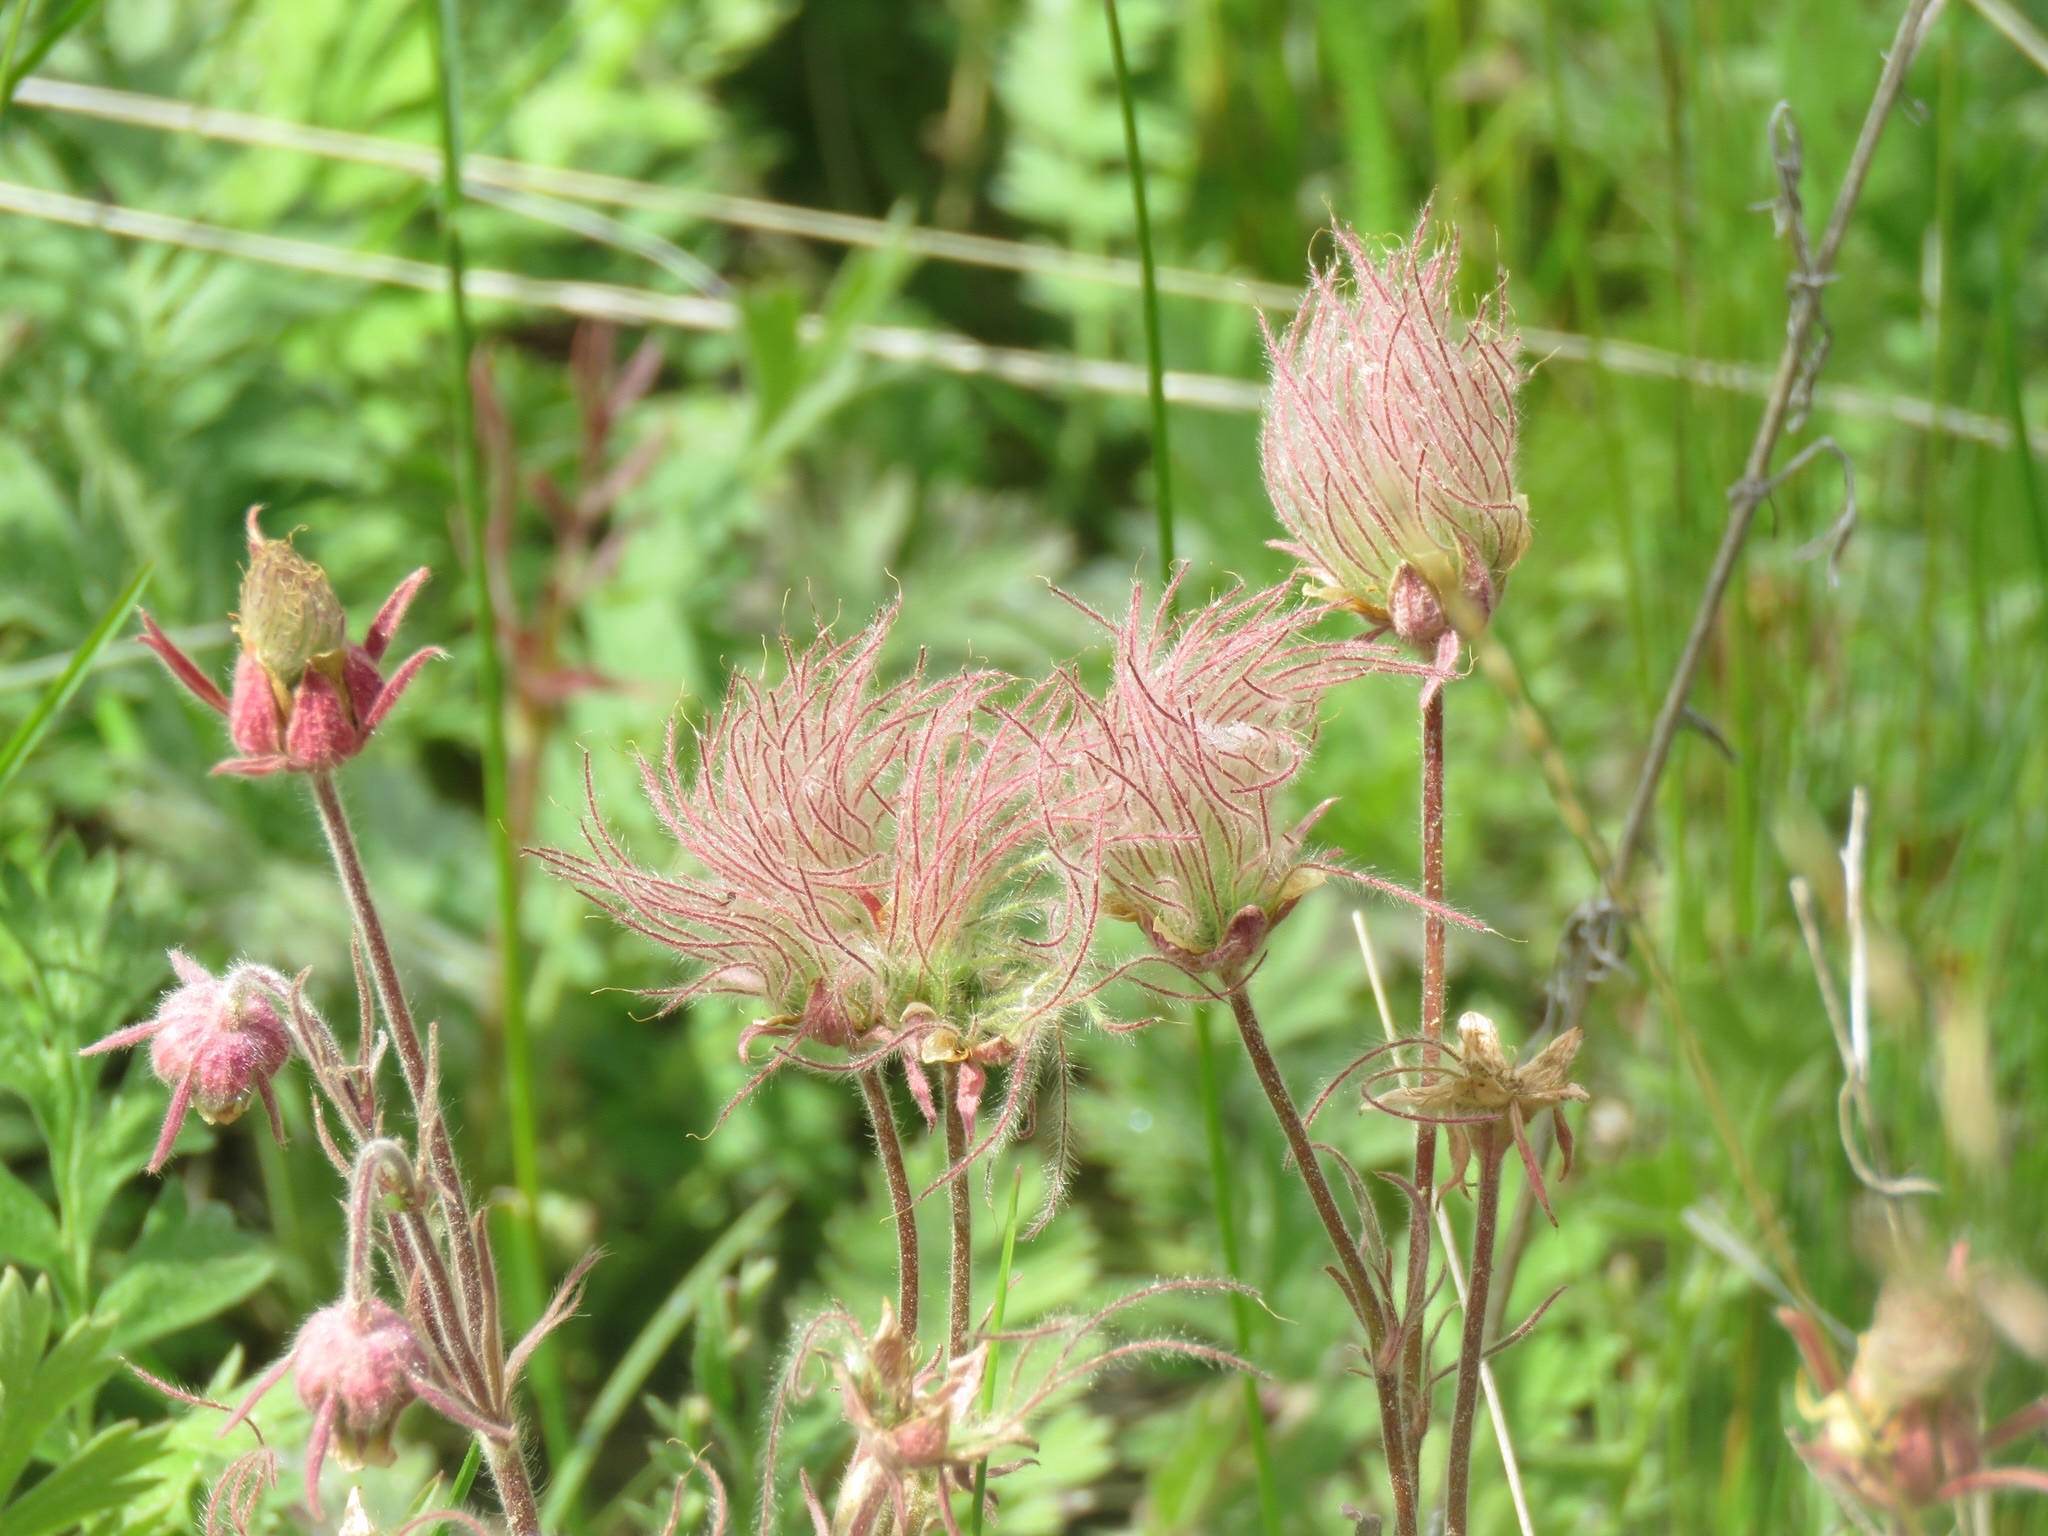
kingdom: Plantae
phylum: Tracheophyta
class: Magnoliopsida
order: Rosales
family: Rosaceae
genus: Geum
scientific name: Geum triflorum
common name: Old man's whiskers
